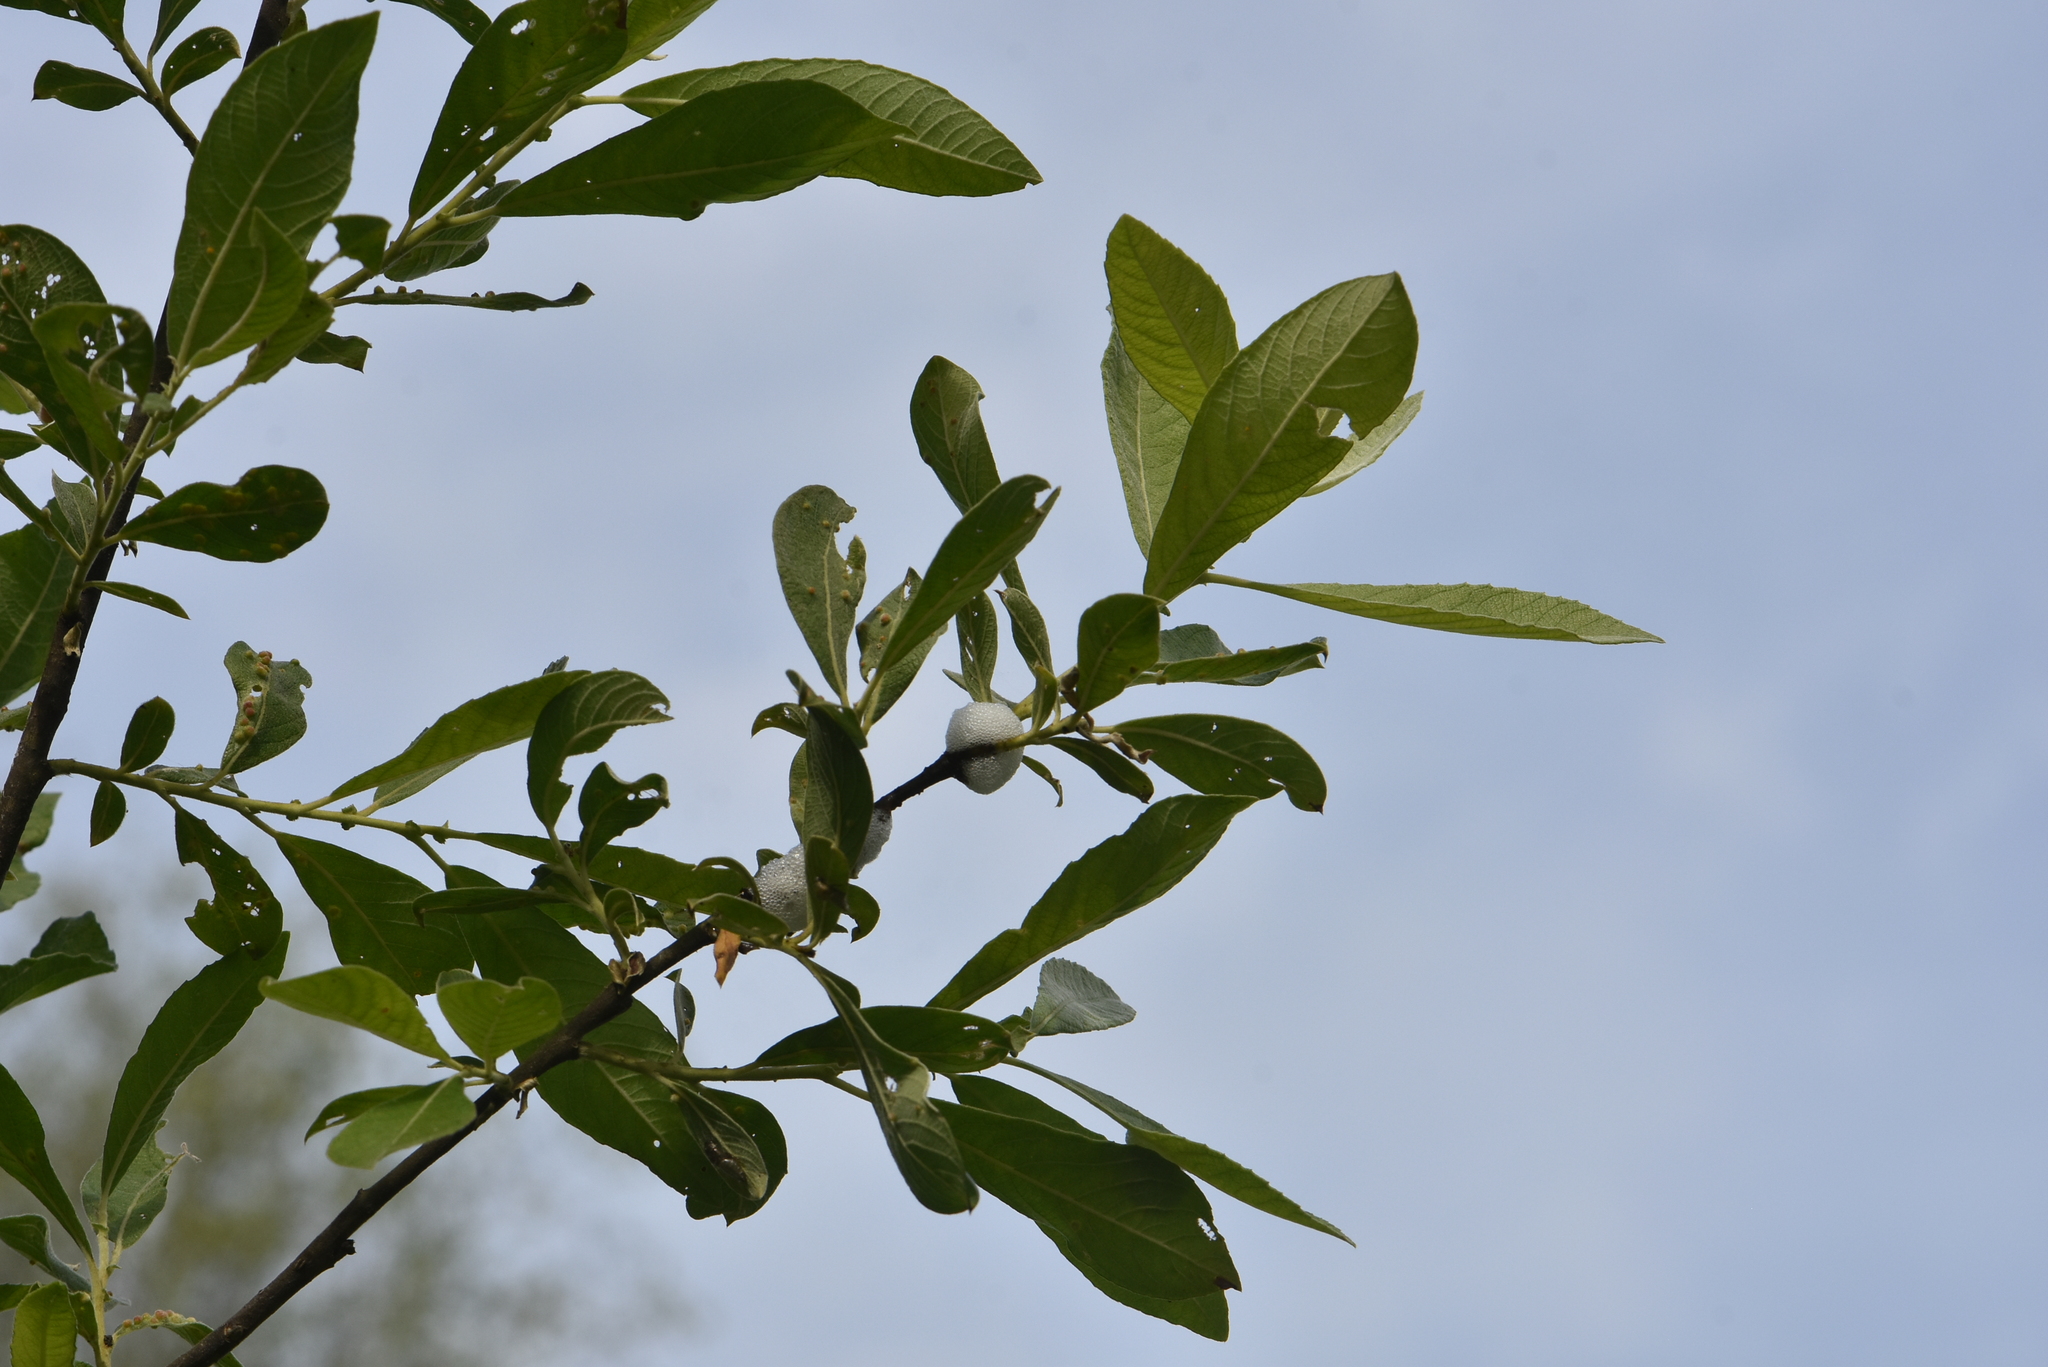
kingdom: Plantae
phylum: Tracheophyta
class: Magnoliopsida
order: Malpighiales
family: Salicaceae
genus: Salix
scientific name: Salix cinerea
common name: Common sallow
